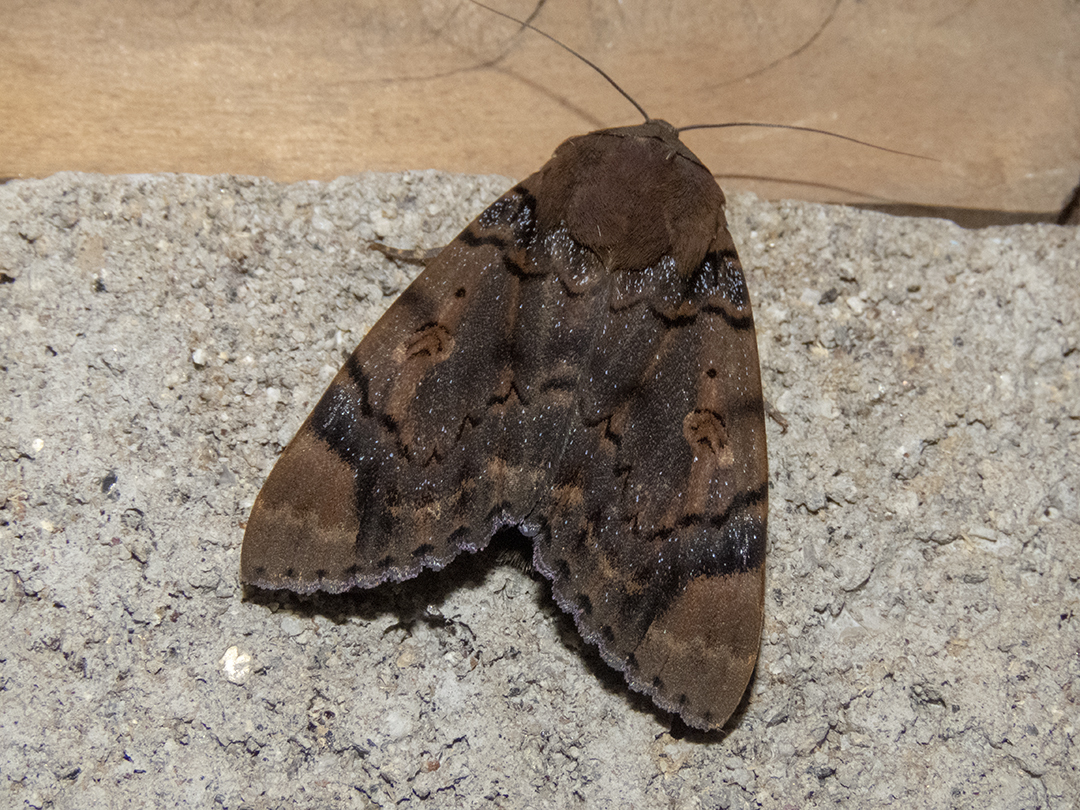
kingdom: Animalia
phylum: Arthropoda
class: Insecta
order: Lepidoptera
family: Erebidae
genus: Arcte
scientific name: Arcte coerula
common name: Ramie moth
